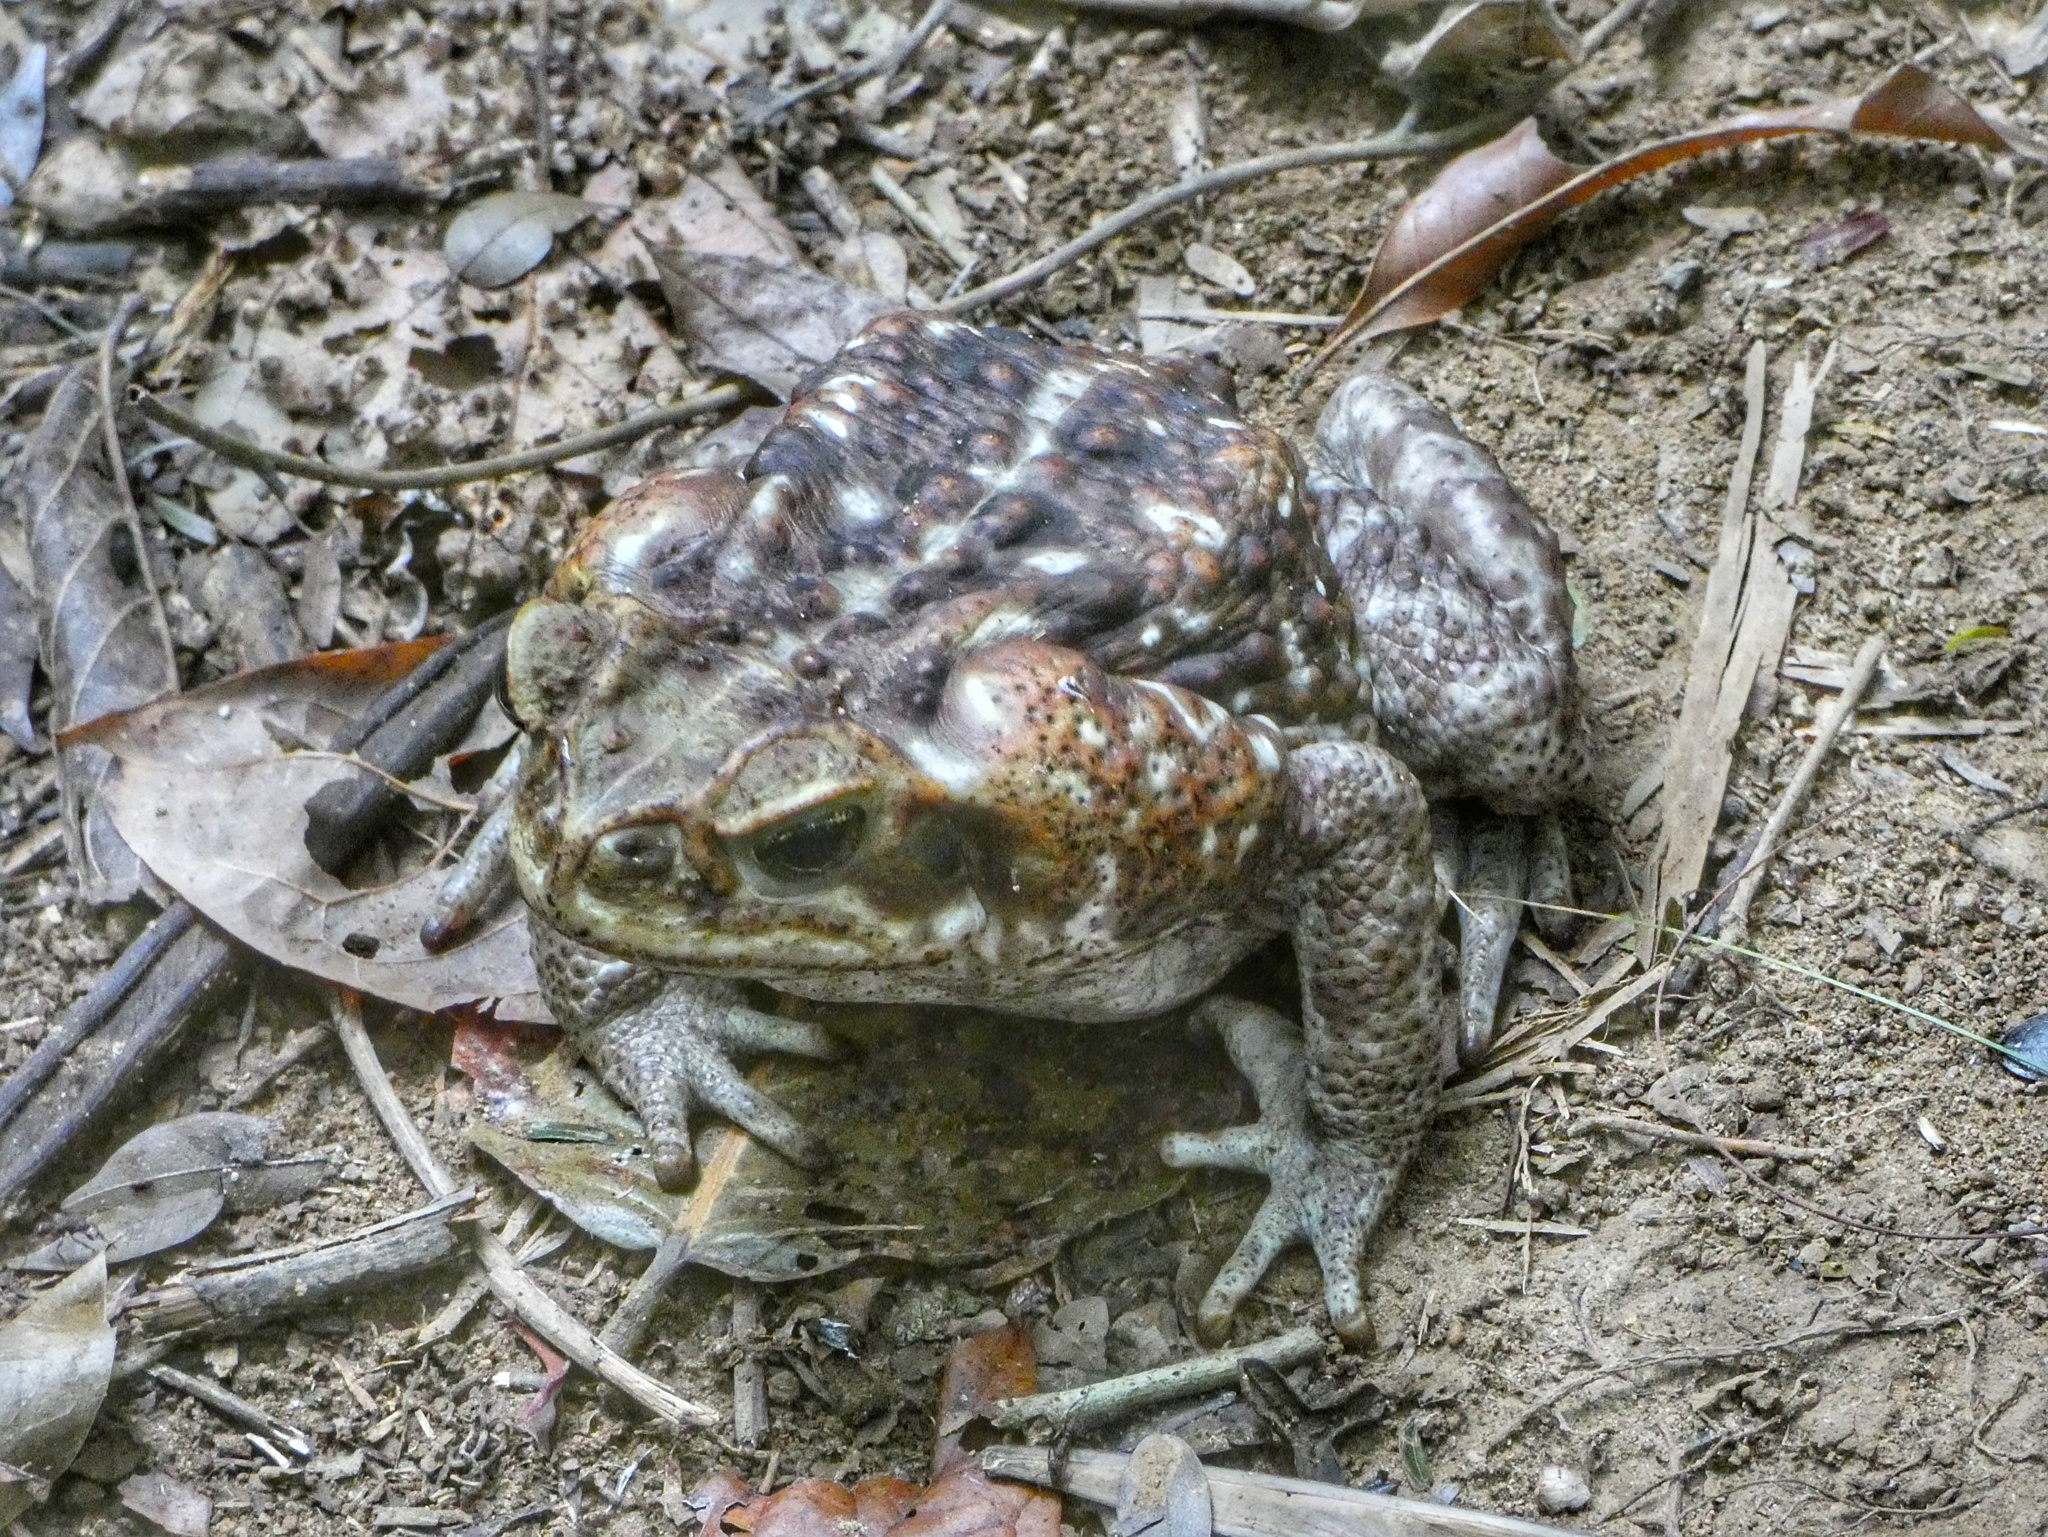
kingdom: Animalia
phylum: Chordata
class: Amphibia
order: Anura
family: Bufonidae
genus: Rhinella
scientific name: Rhinella horribilis
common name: Mesoamerican cane toad
